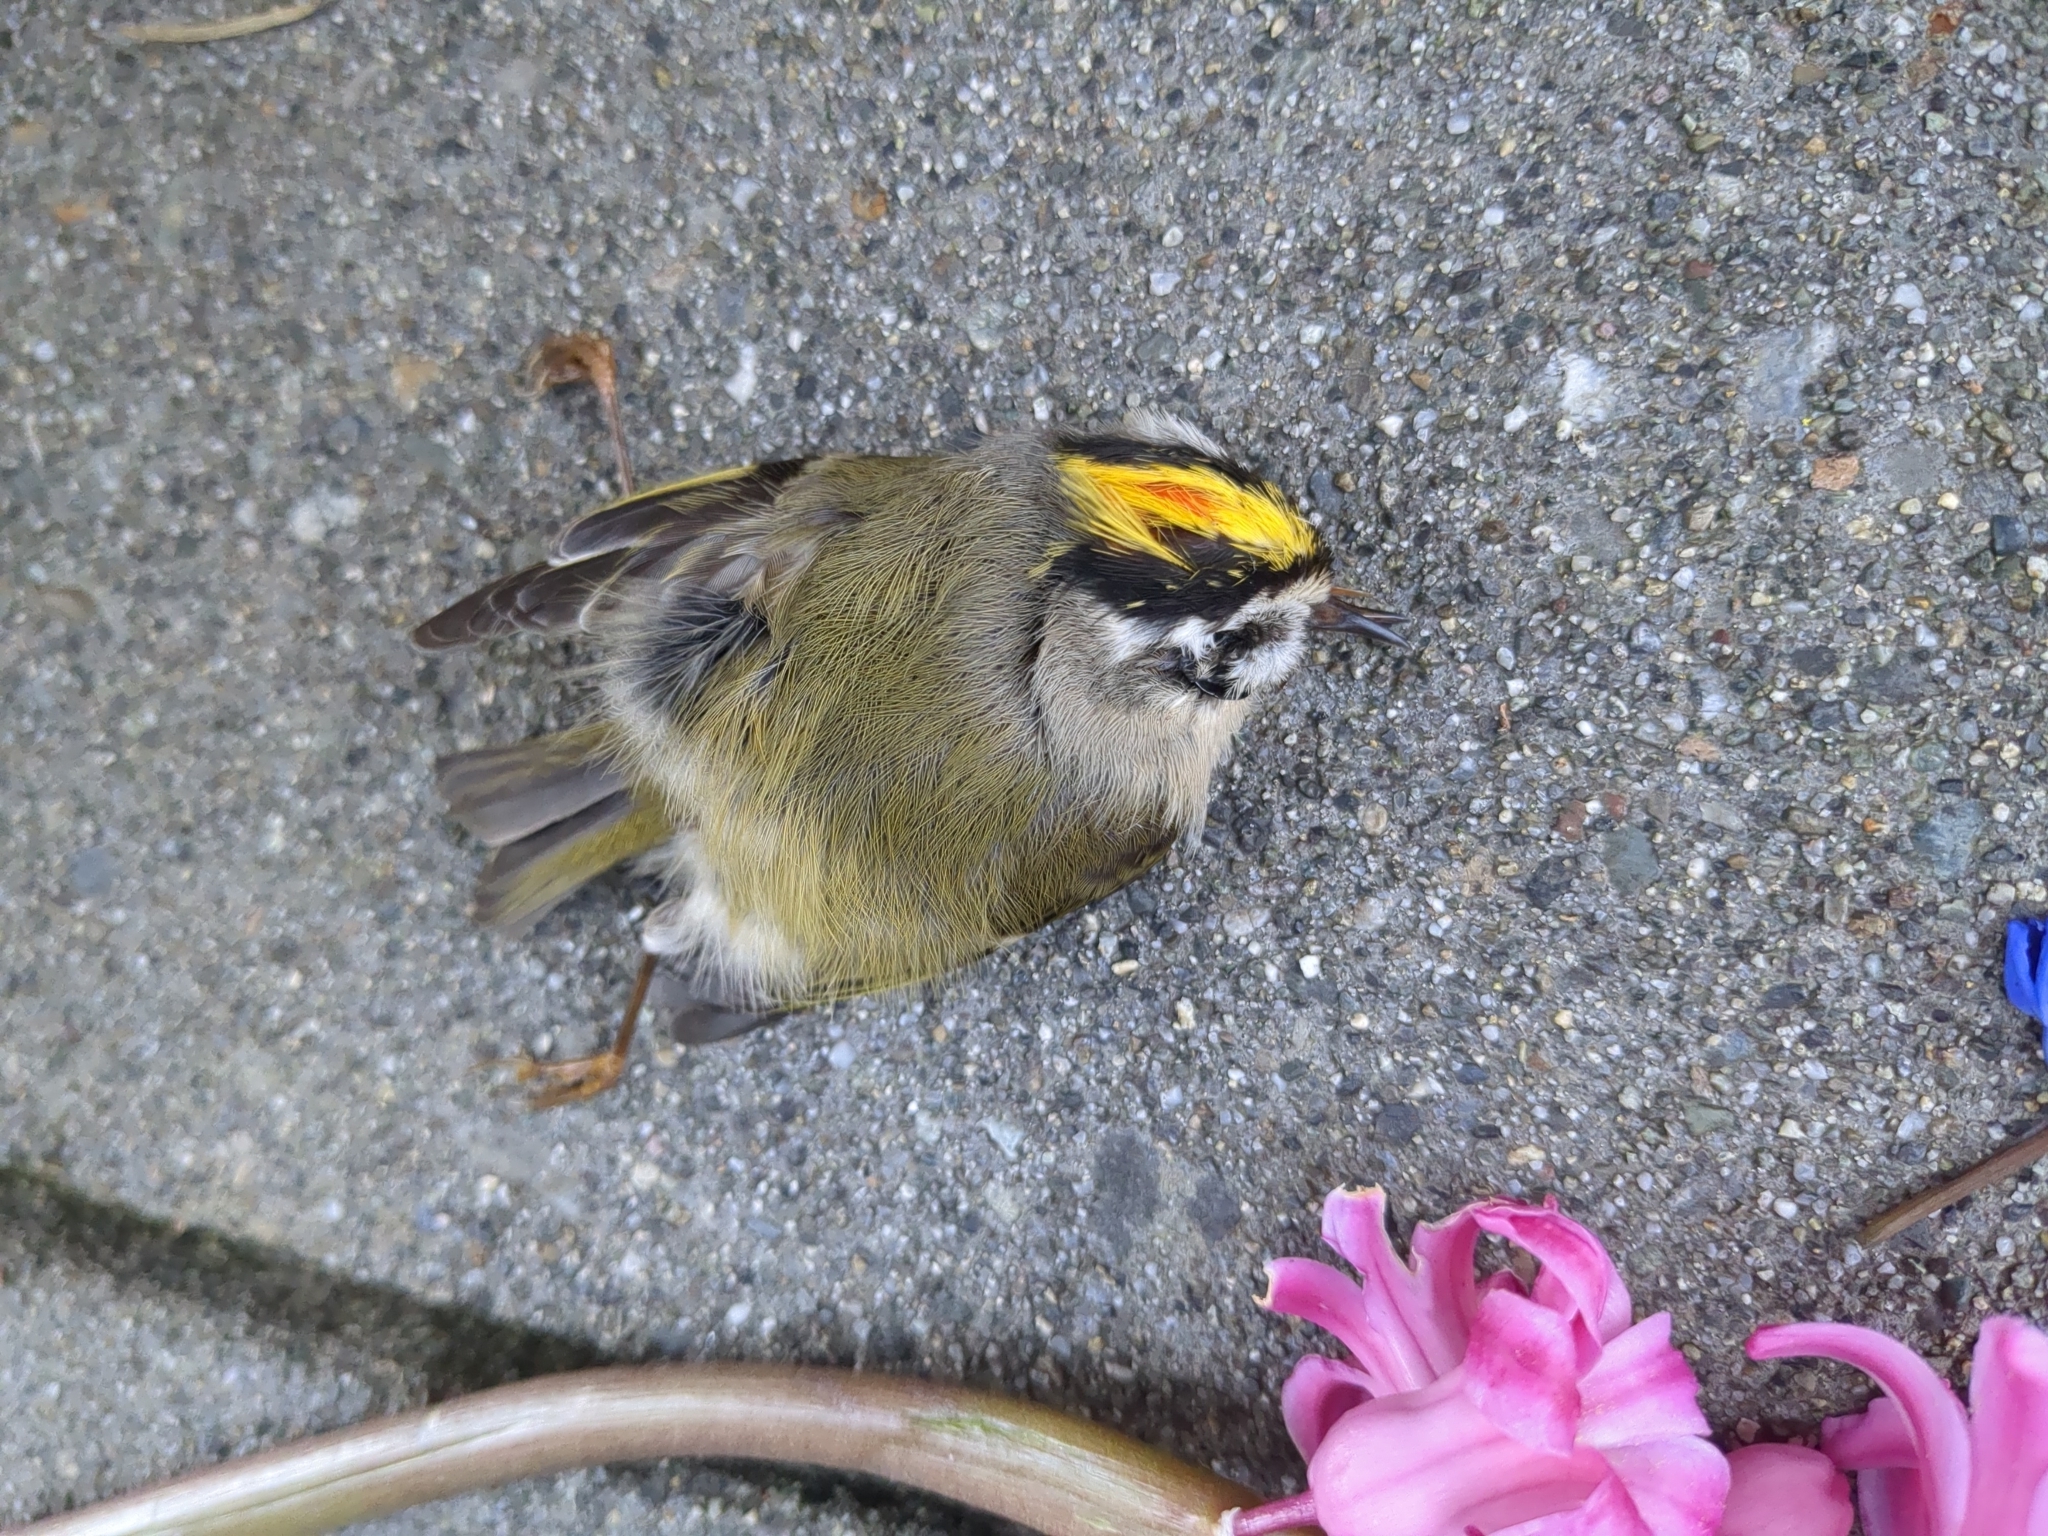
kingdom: Animalia
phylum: Chordata
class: Aves
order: Passeriformes
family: Regulidae
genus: Regulus
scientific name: Regulus satrapa
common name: Golden-crowned kinglet
